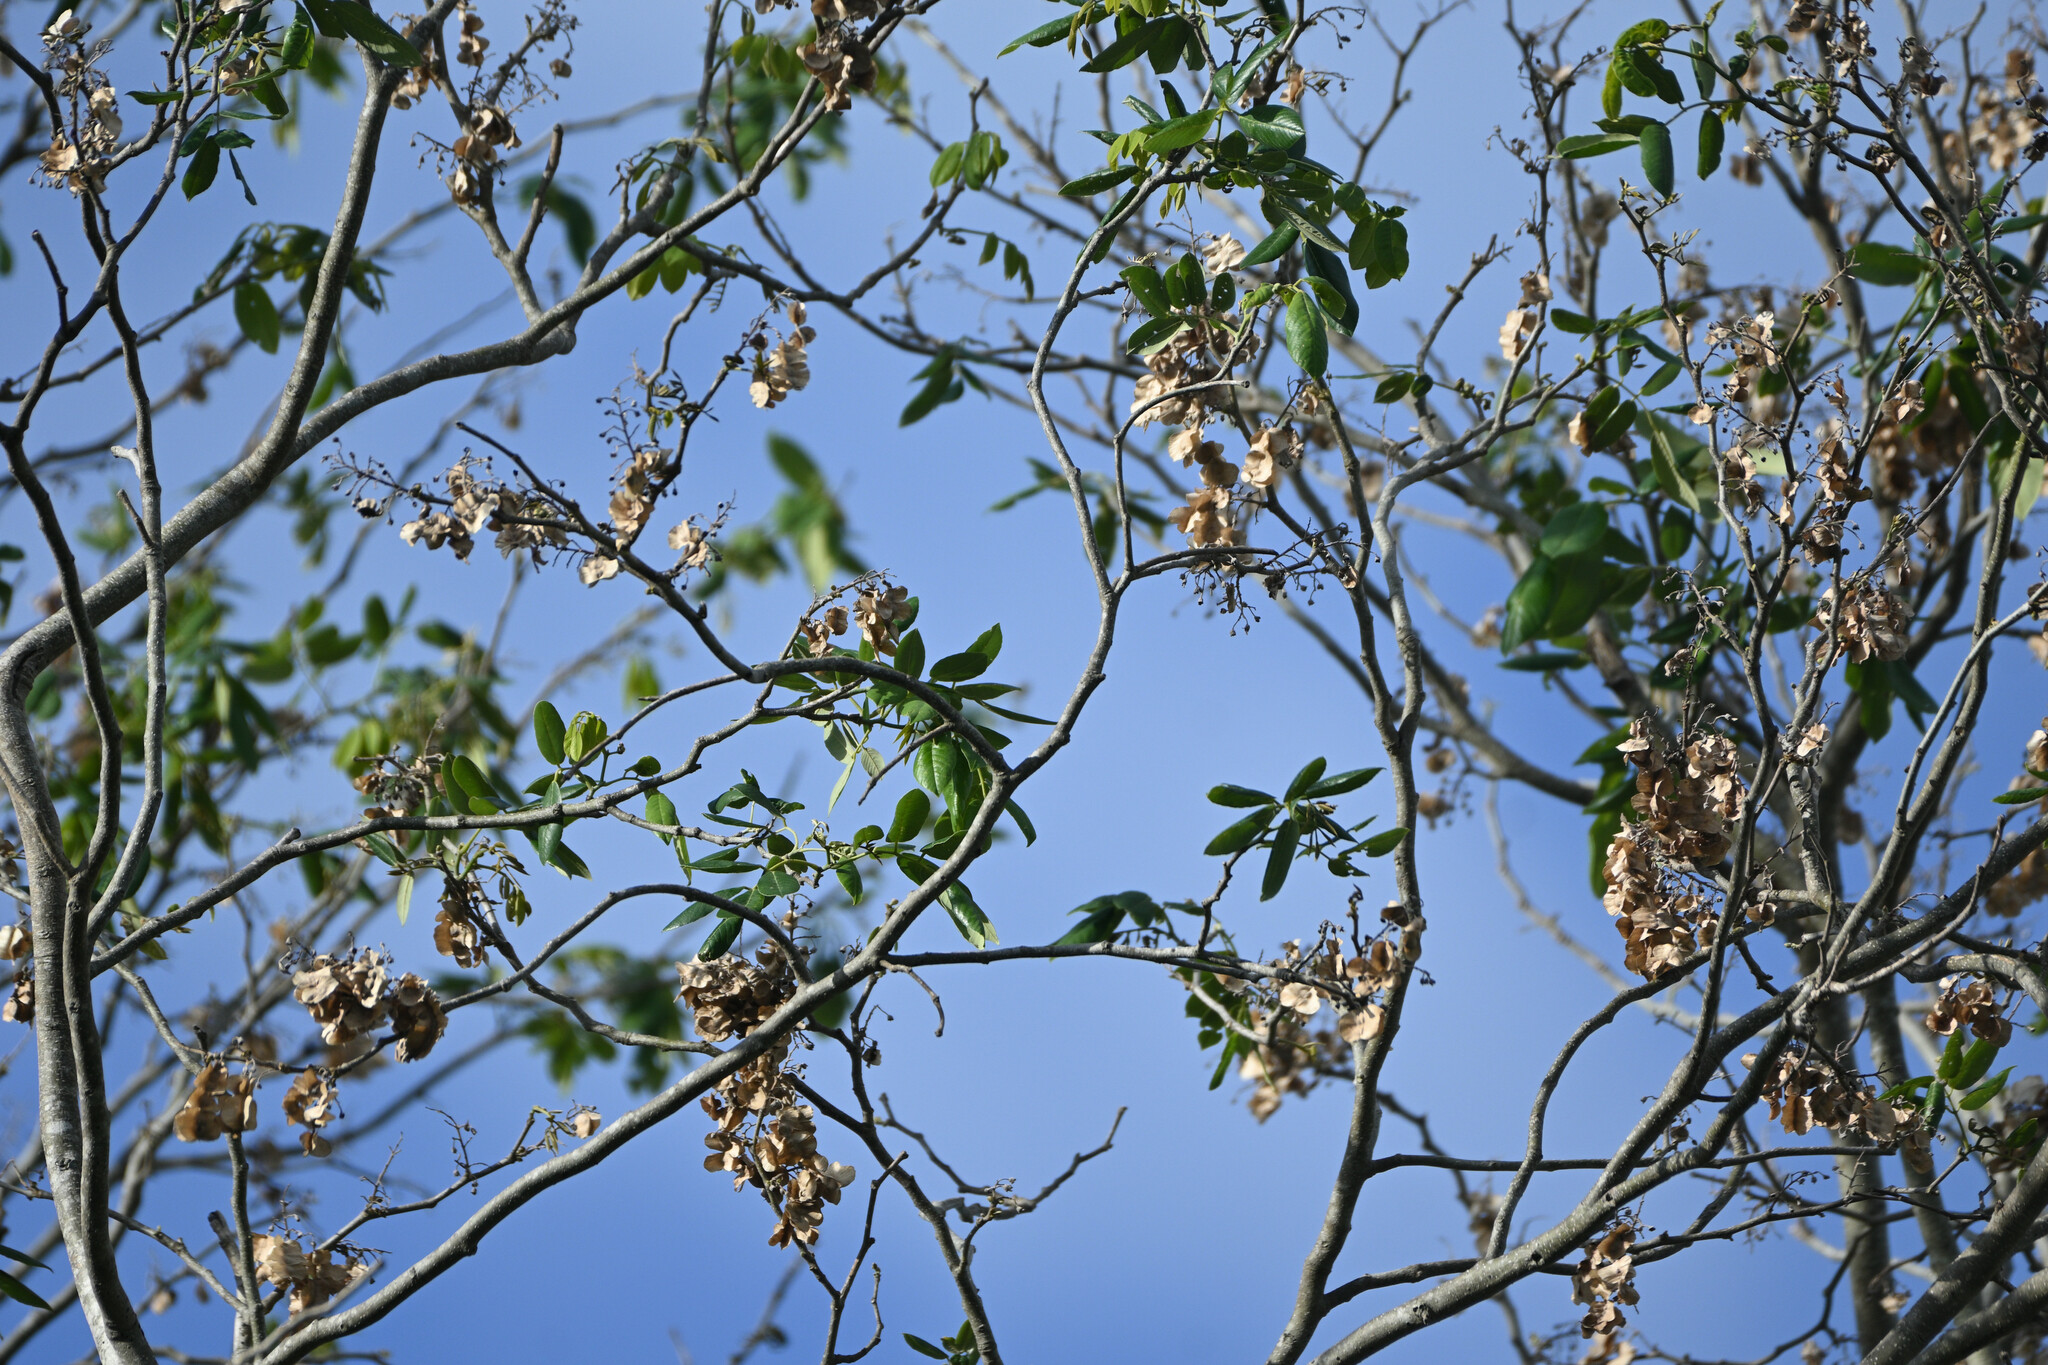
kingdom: Plantae
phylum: Tracheophyta
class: Magnoliopsida
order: Fabales
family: Fabaceae
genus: Piscidia
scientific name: Piscidia piscipula
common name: Florida fishpoison tree
